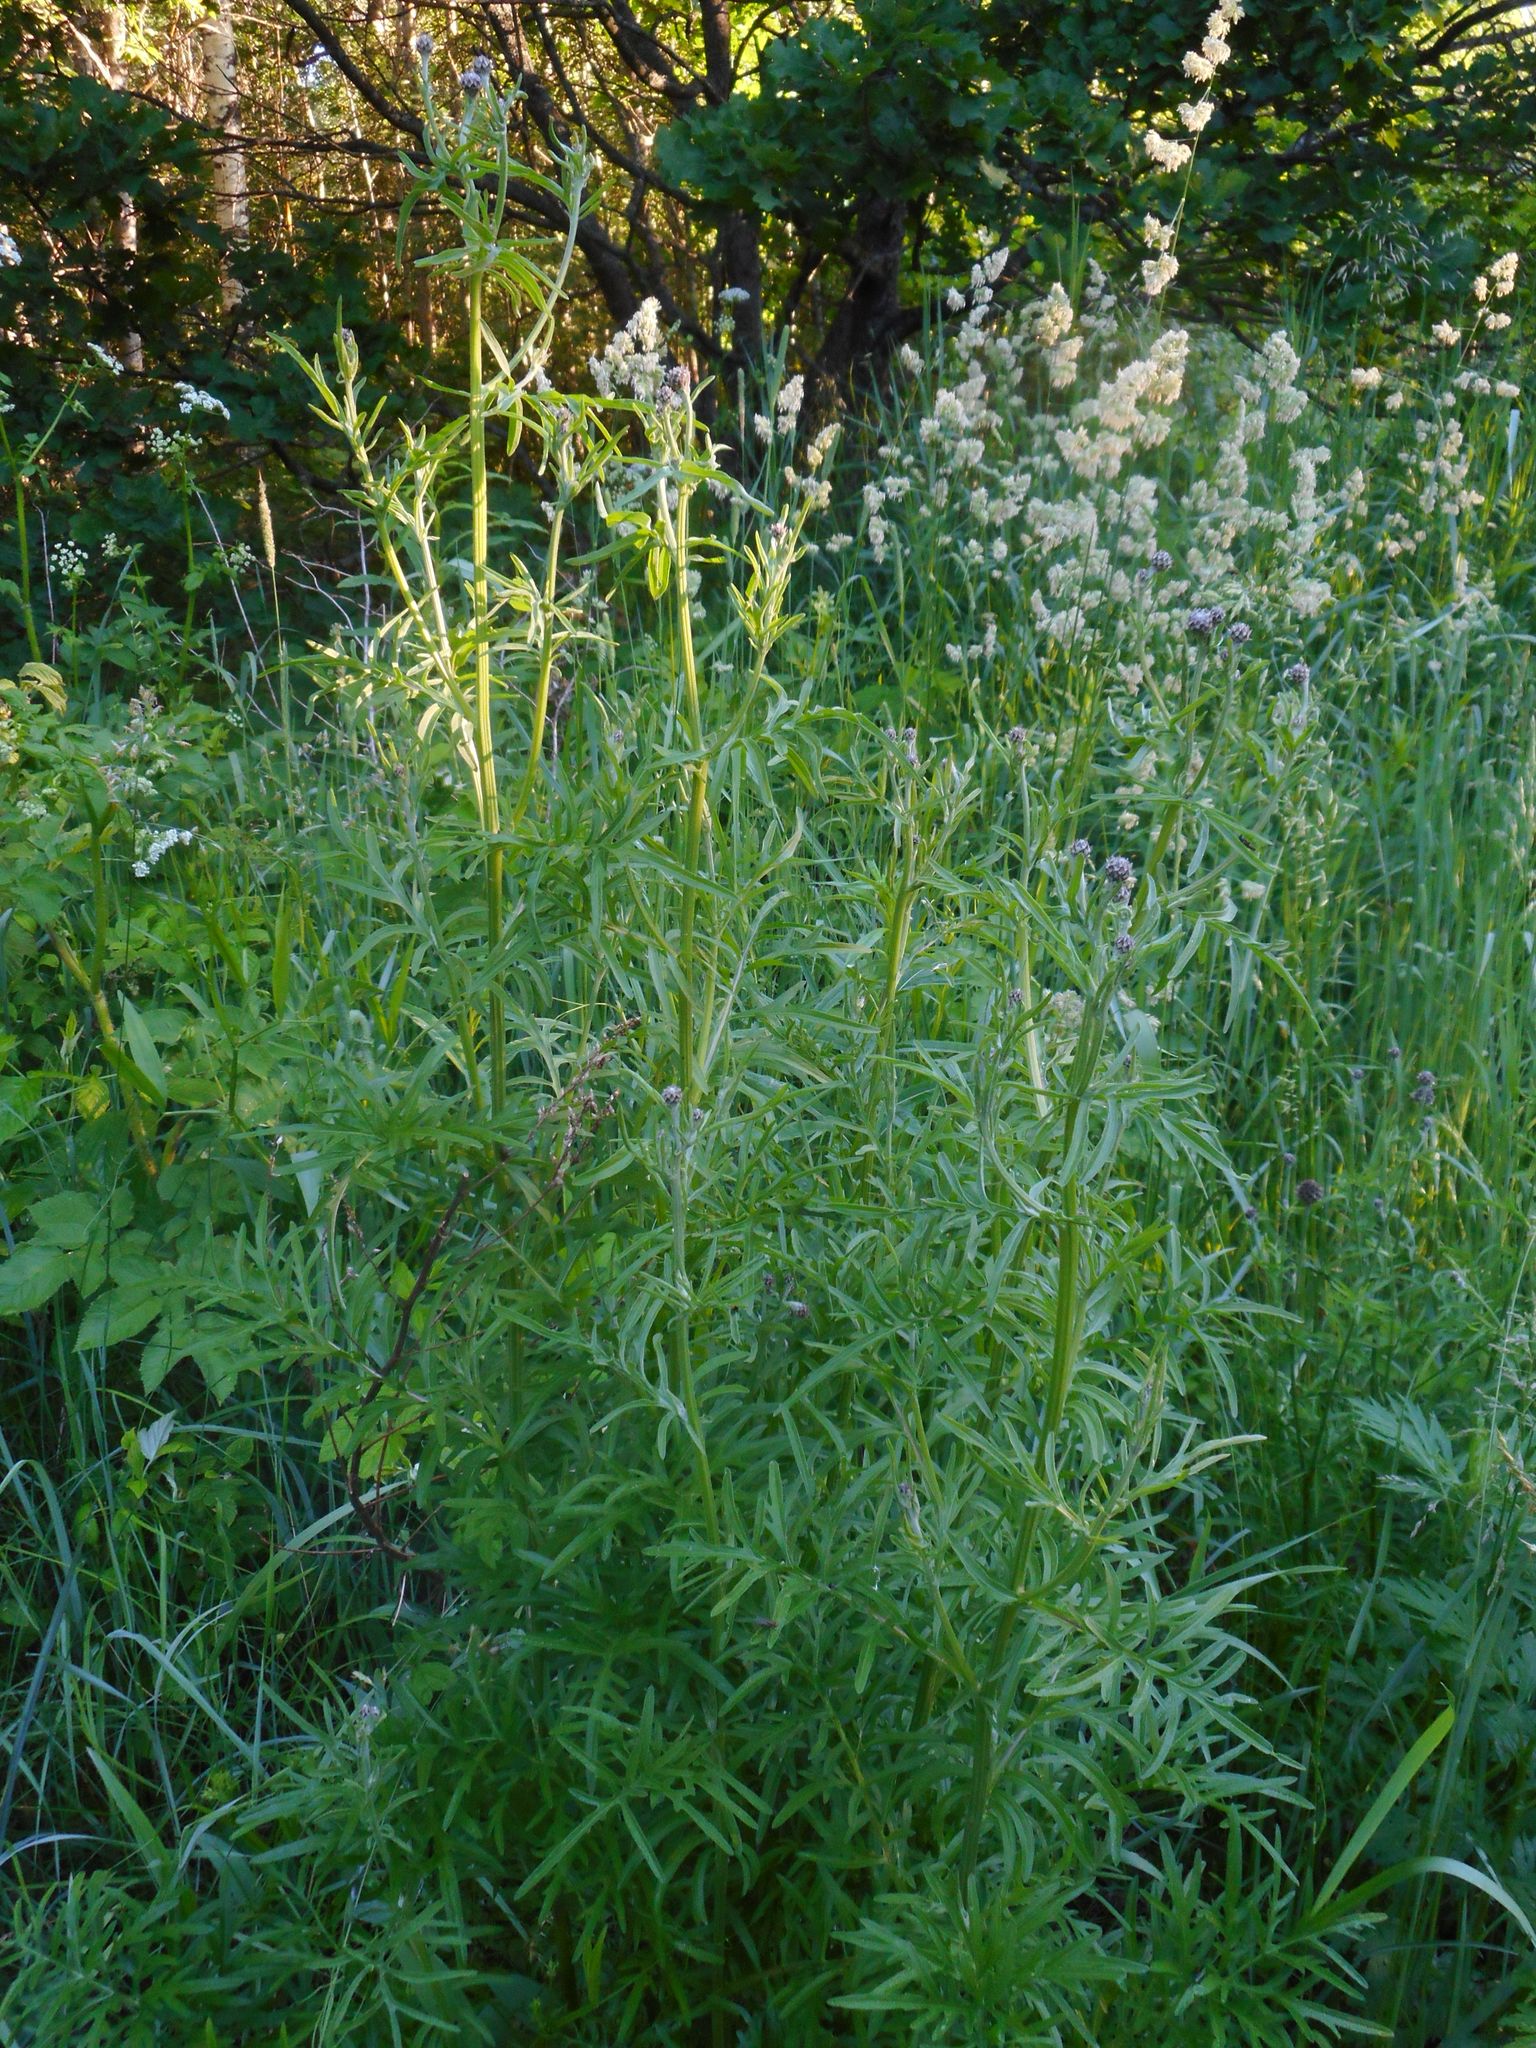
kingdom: Plantae
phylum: Tracheophyta
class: Magnoliopsida
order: Asterales
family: Asteraceae
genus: Centaurea
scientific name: Centaurea scabiosa
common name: Greater knapweed
